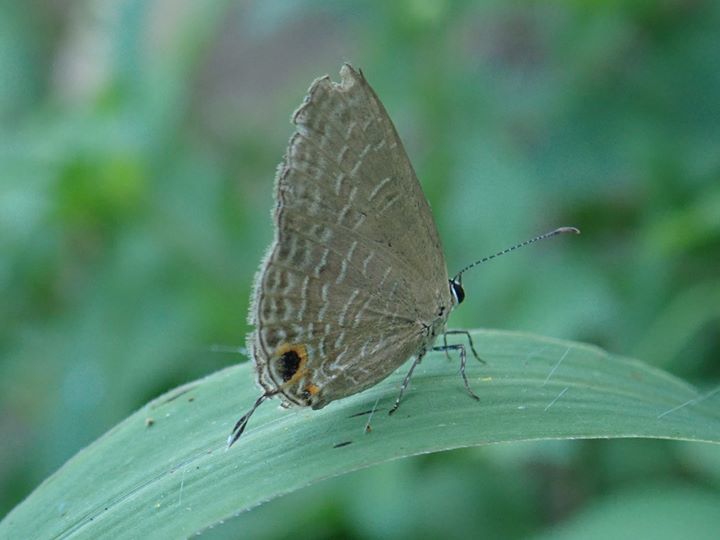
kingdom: Animalia
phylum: Arthropoda
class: Insecta
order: Lepidoptera
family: Lycaenidae
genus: Jamides
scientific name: Jamides bochus
